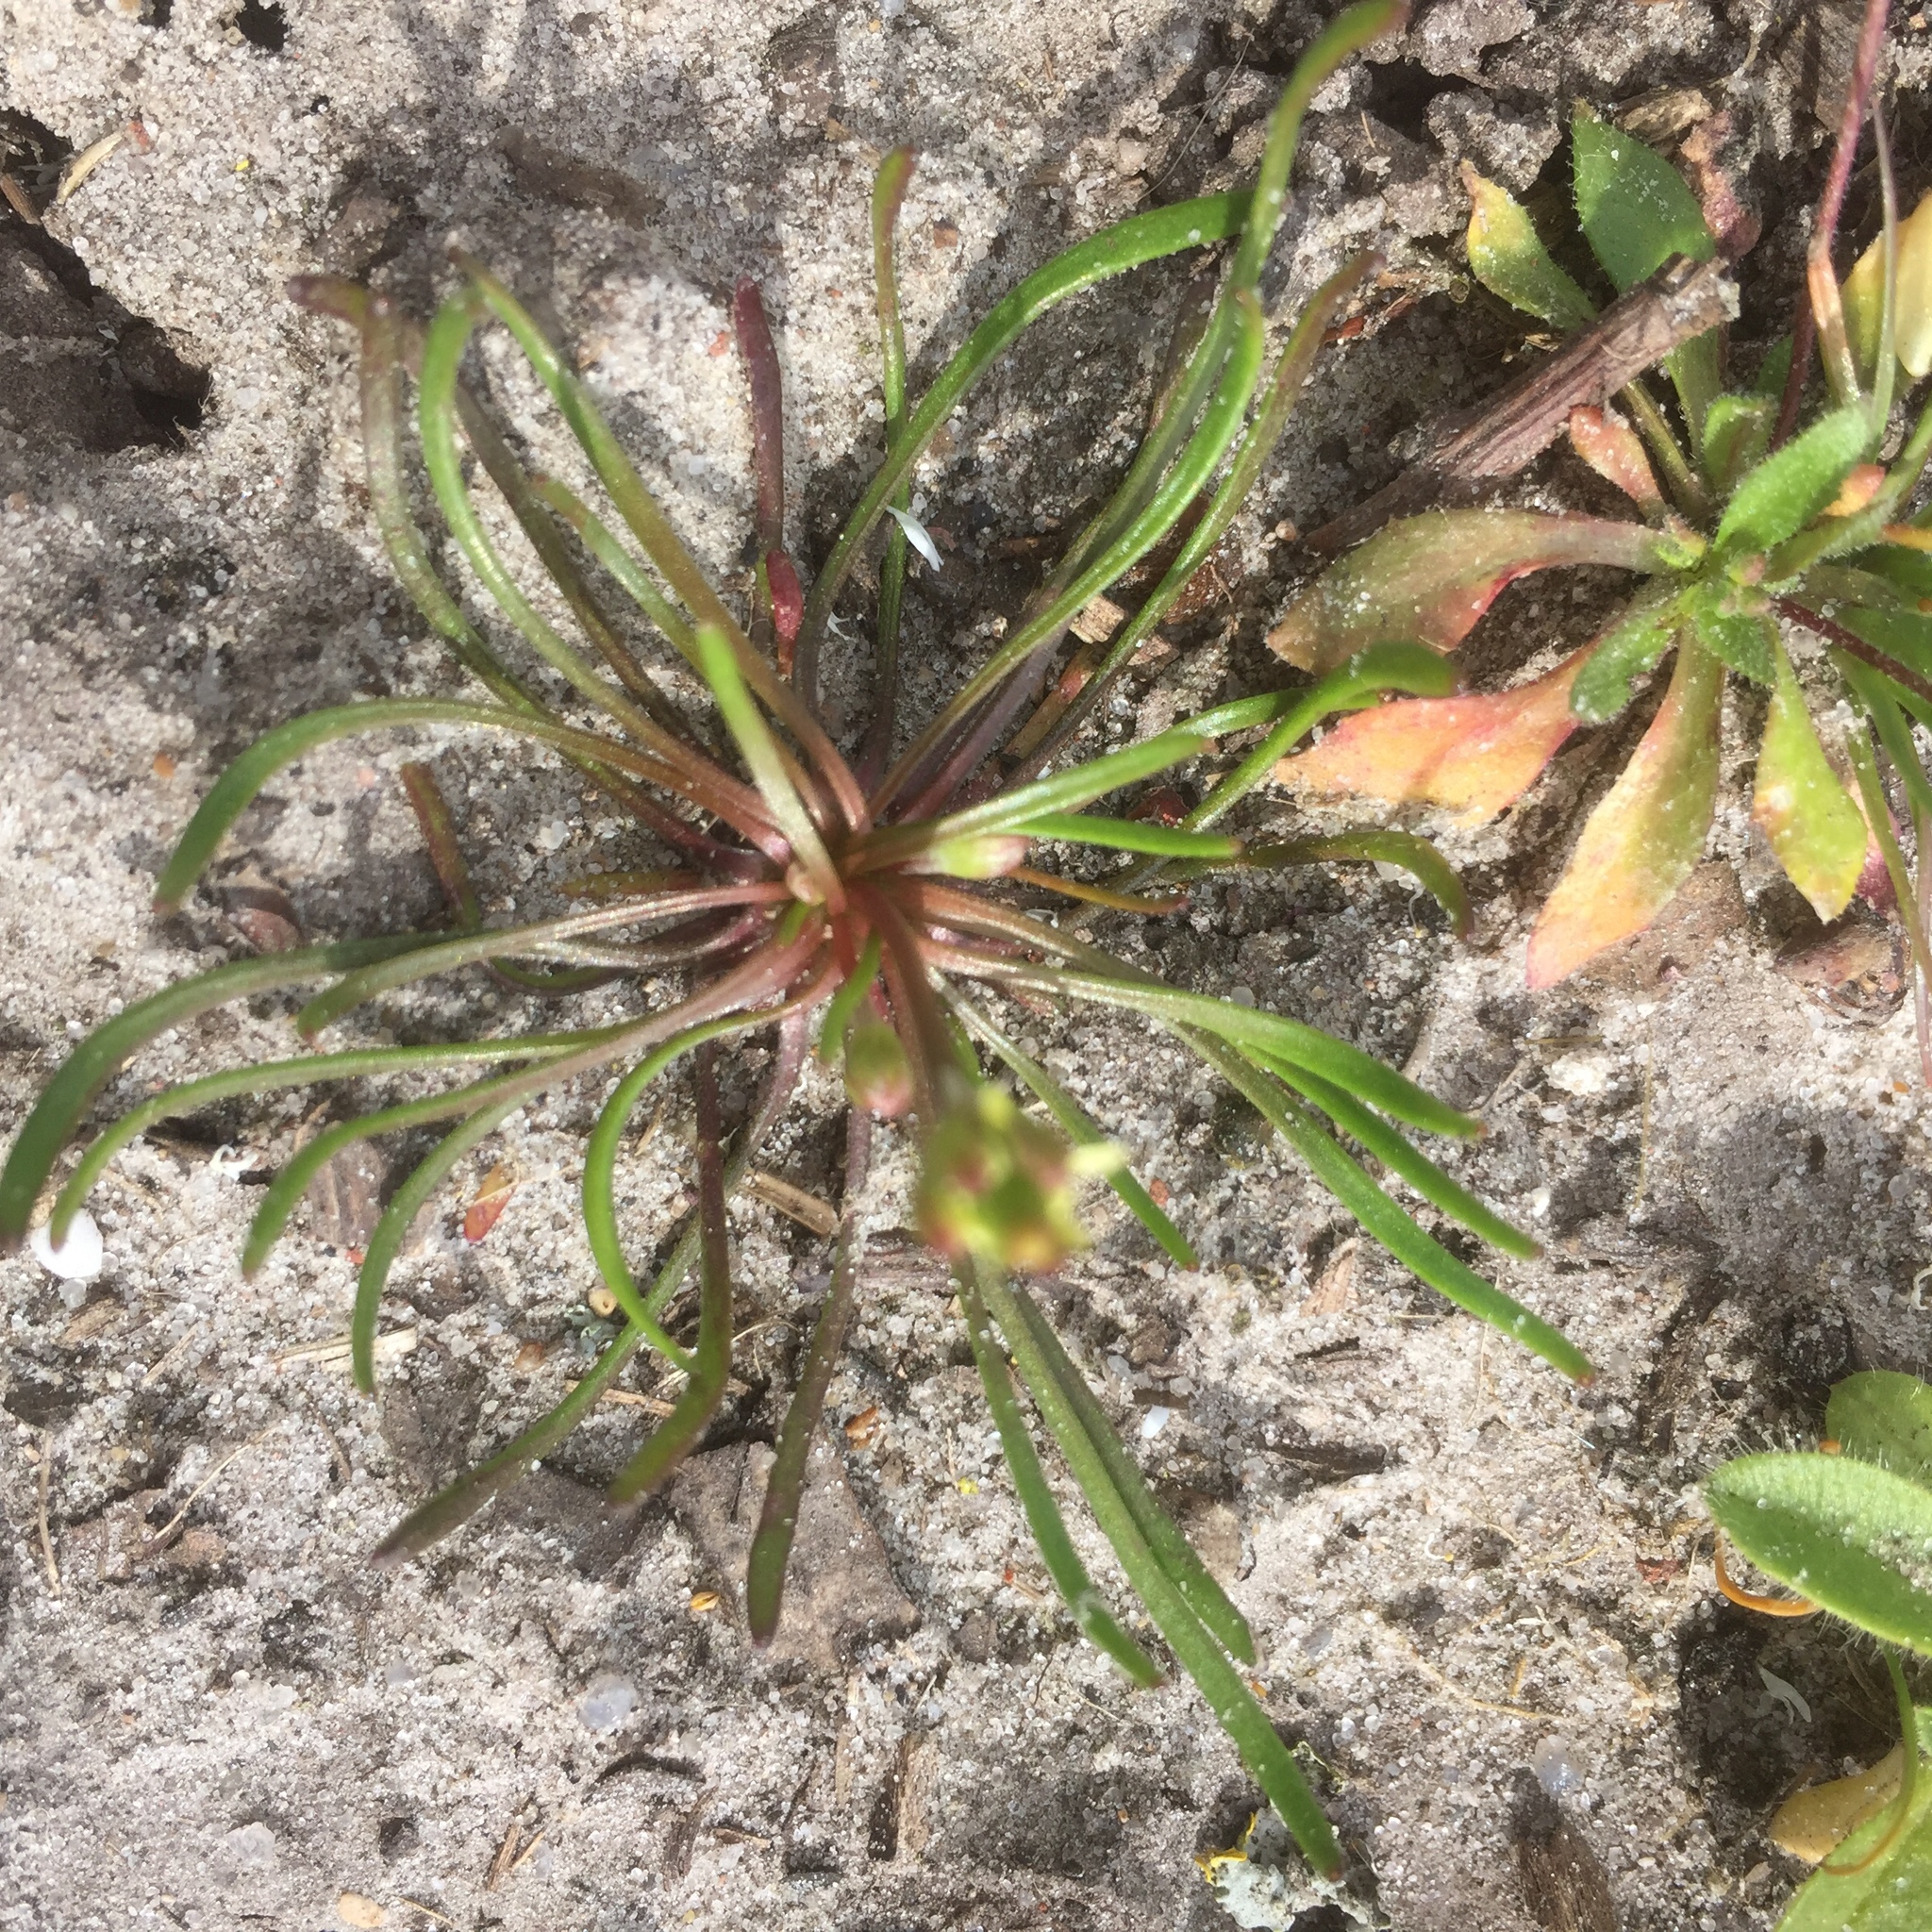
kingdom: Plantae
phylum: Tracheophyta
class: Magnoliopsida
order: Ranunculales
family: Ranunculaceae
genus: Myosurus
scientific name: Myosurus minimus
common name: Mousetail
